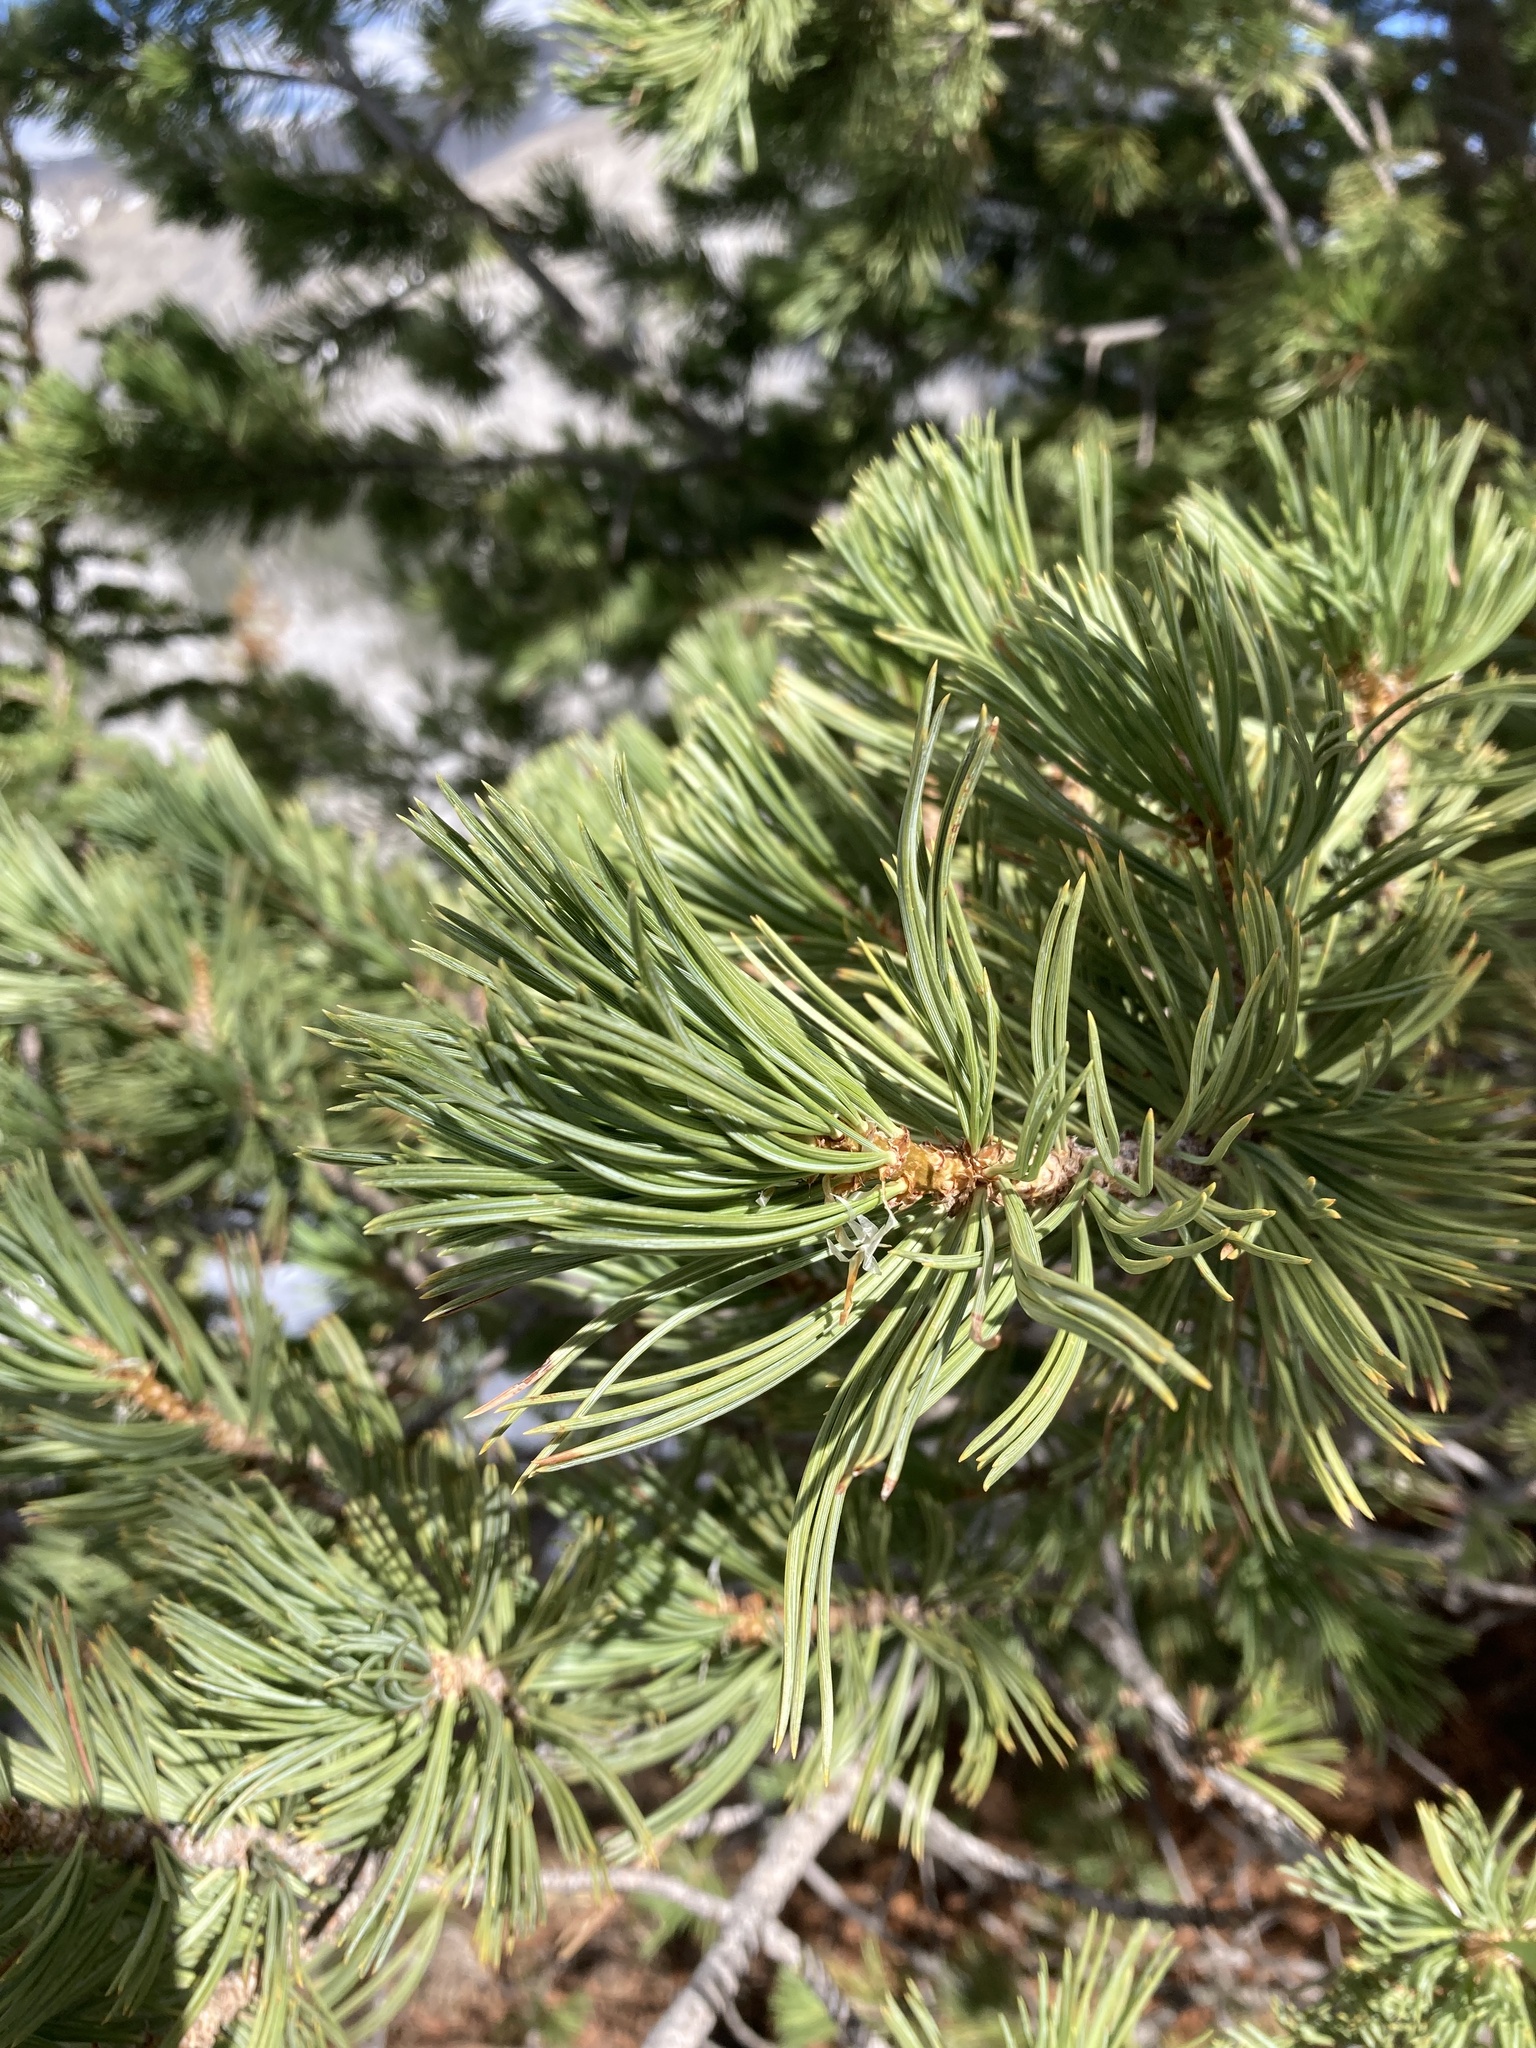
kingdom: Plantae
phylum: Tracheophyta
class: Pinopsida
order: Pinales
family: Pinaceae
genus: Pinus
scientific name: Pinus albicaulis
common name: Whitebark pine
